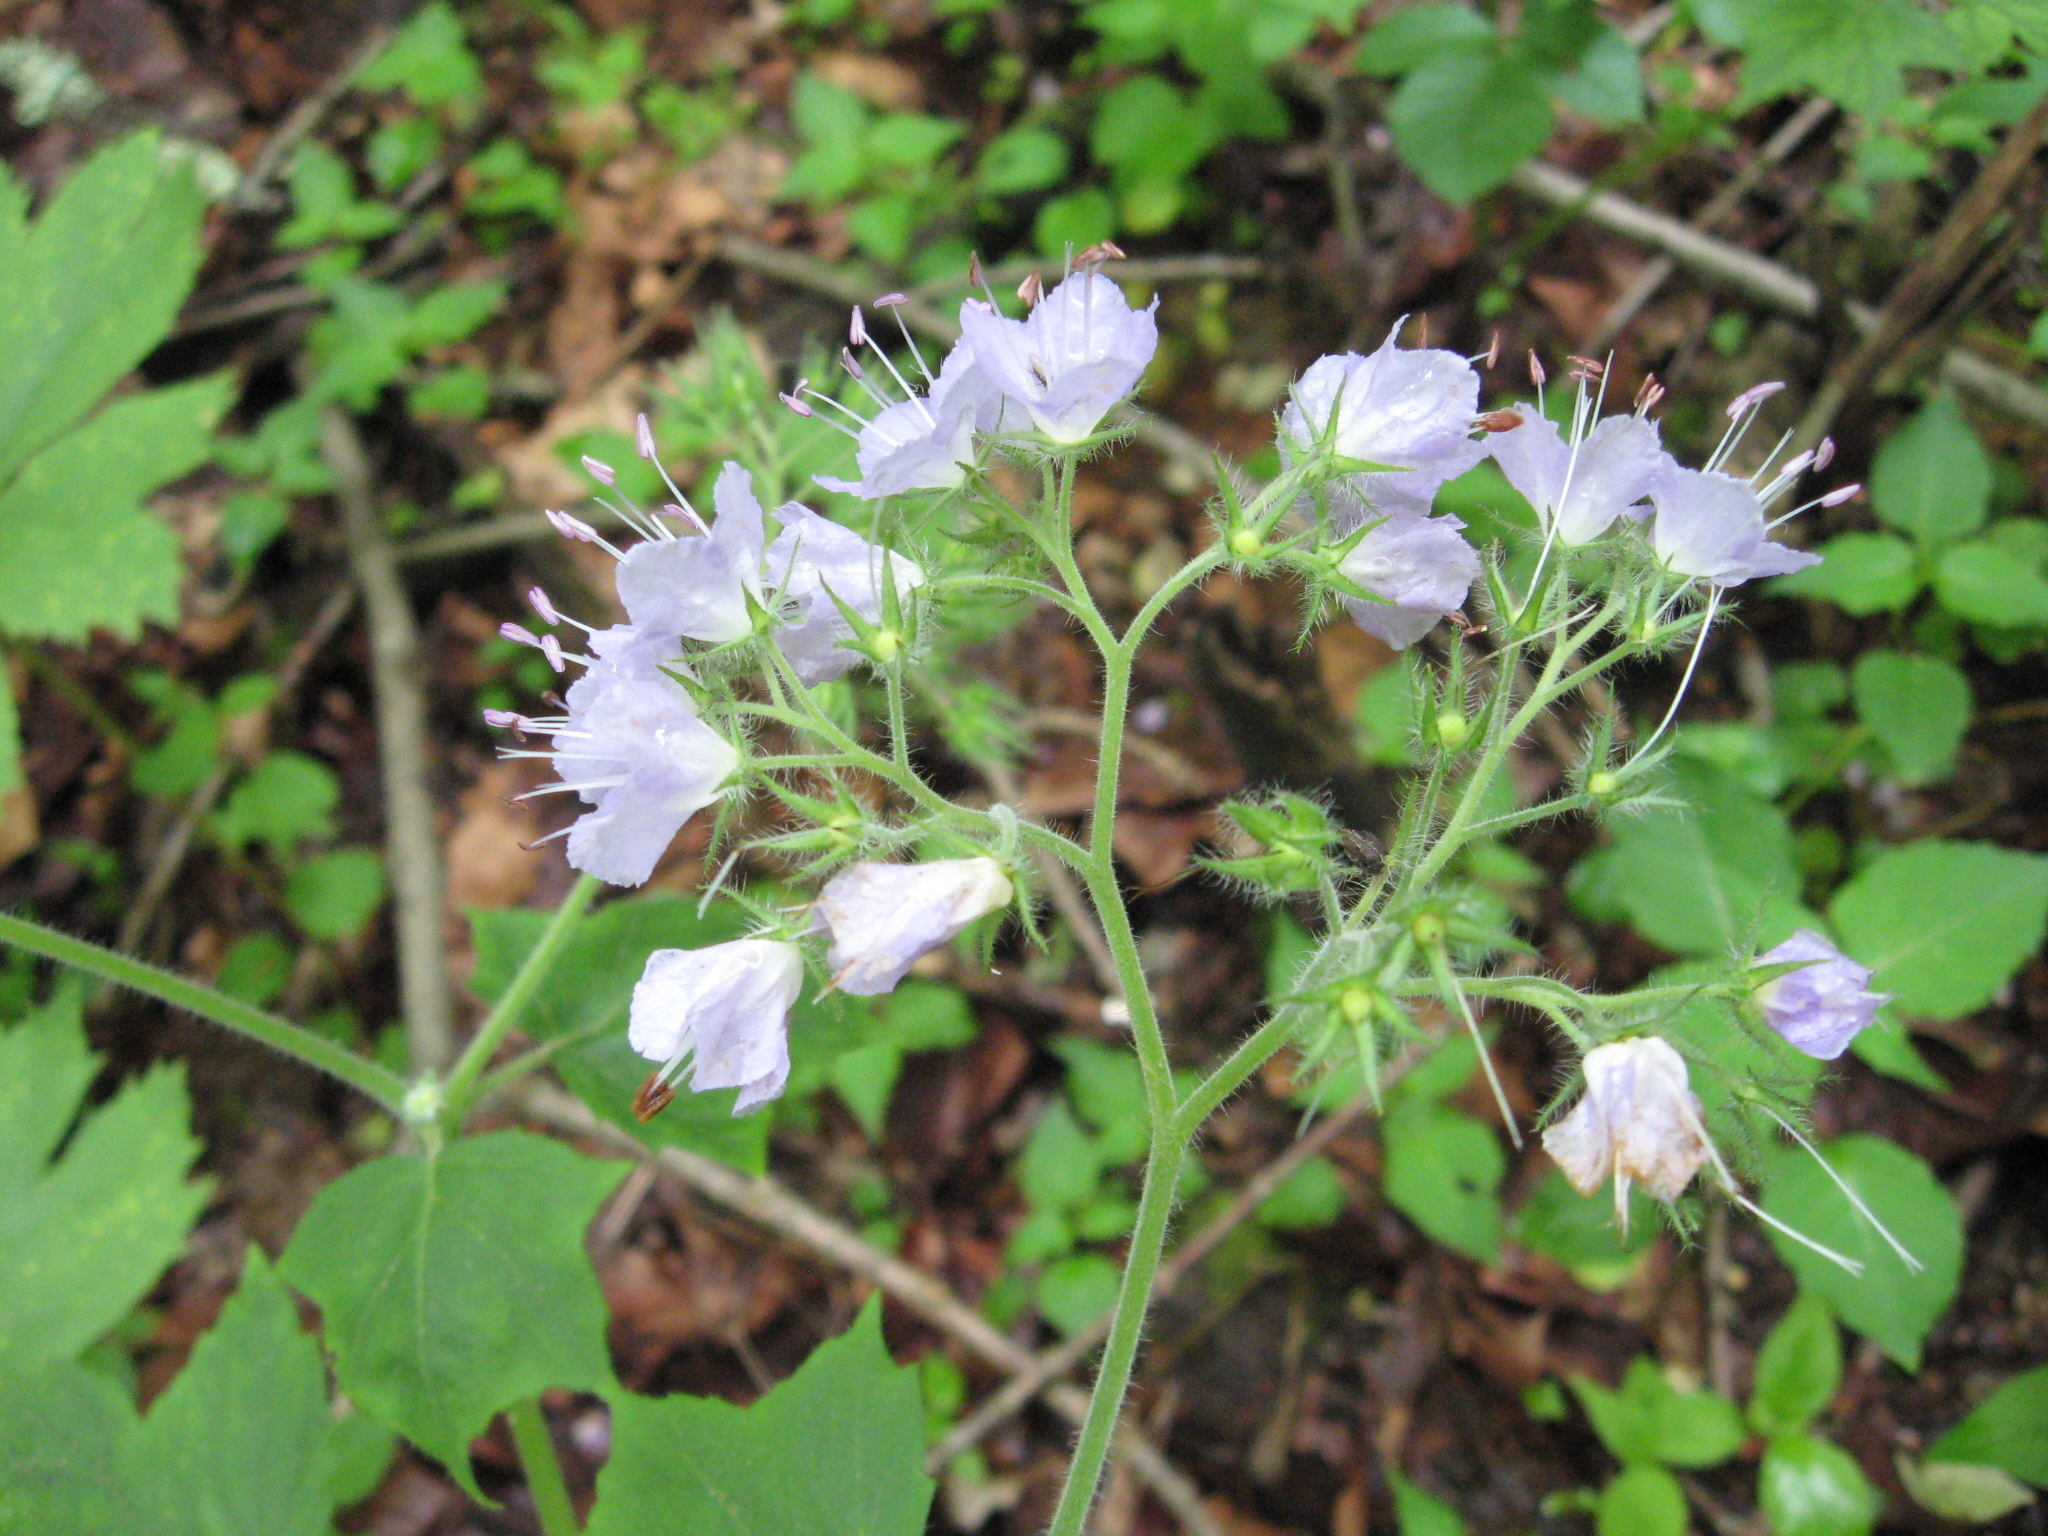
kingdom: Plantae
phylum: Tracheophyta
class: Magnoliopsida
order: Boraginales
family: Hydrophyllaceae
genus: Hydrophyllum
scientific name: Hydrophyllum appendiculatum
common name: Appendaged waterleaf
